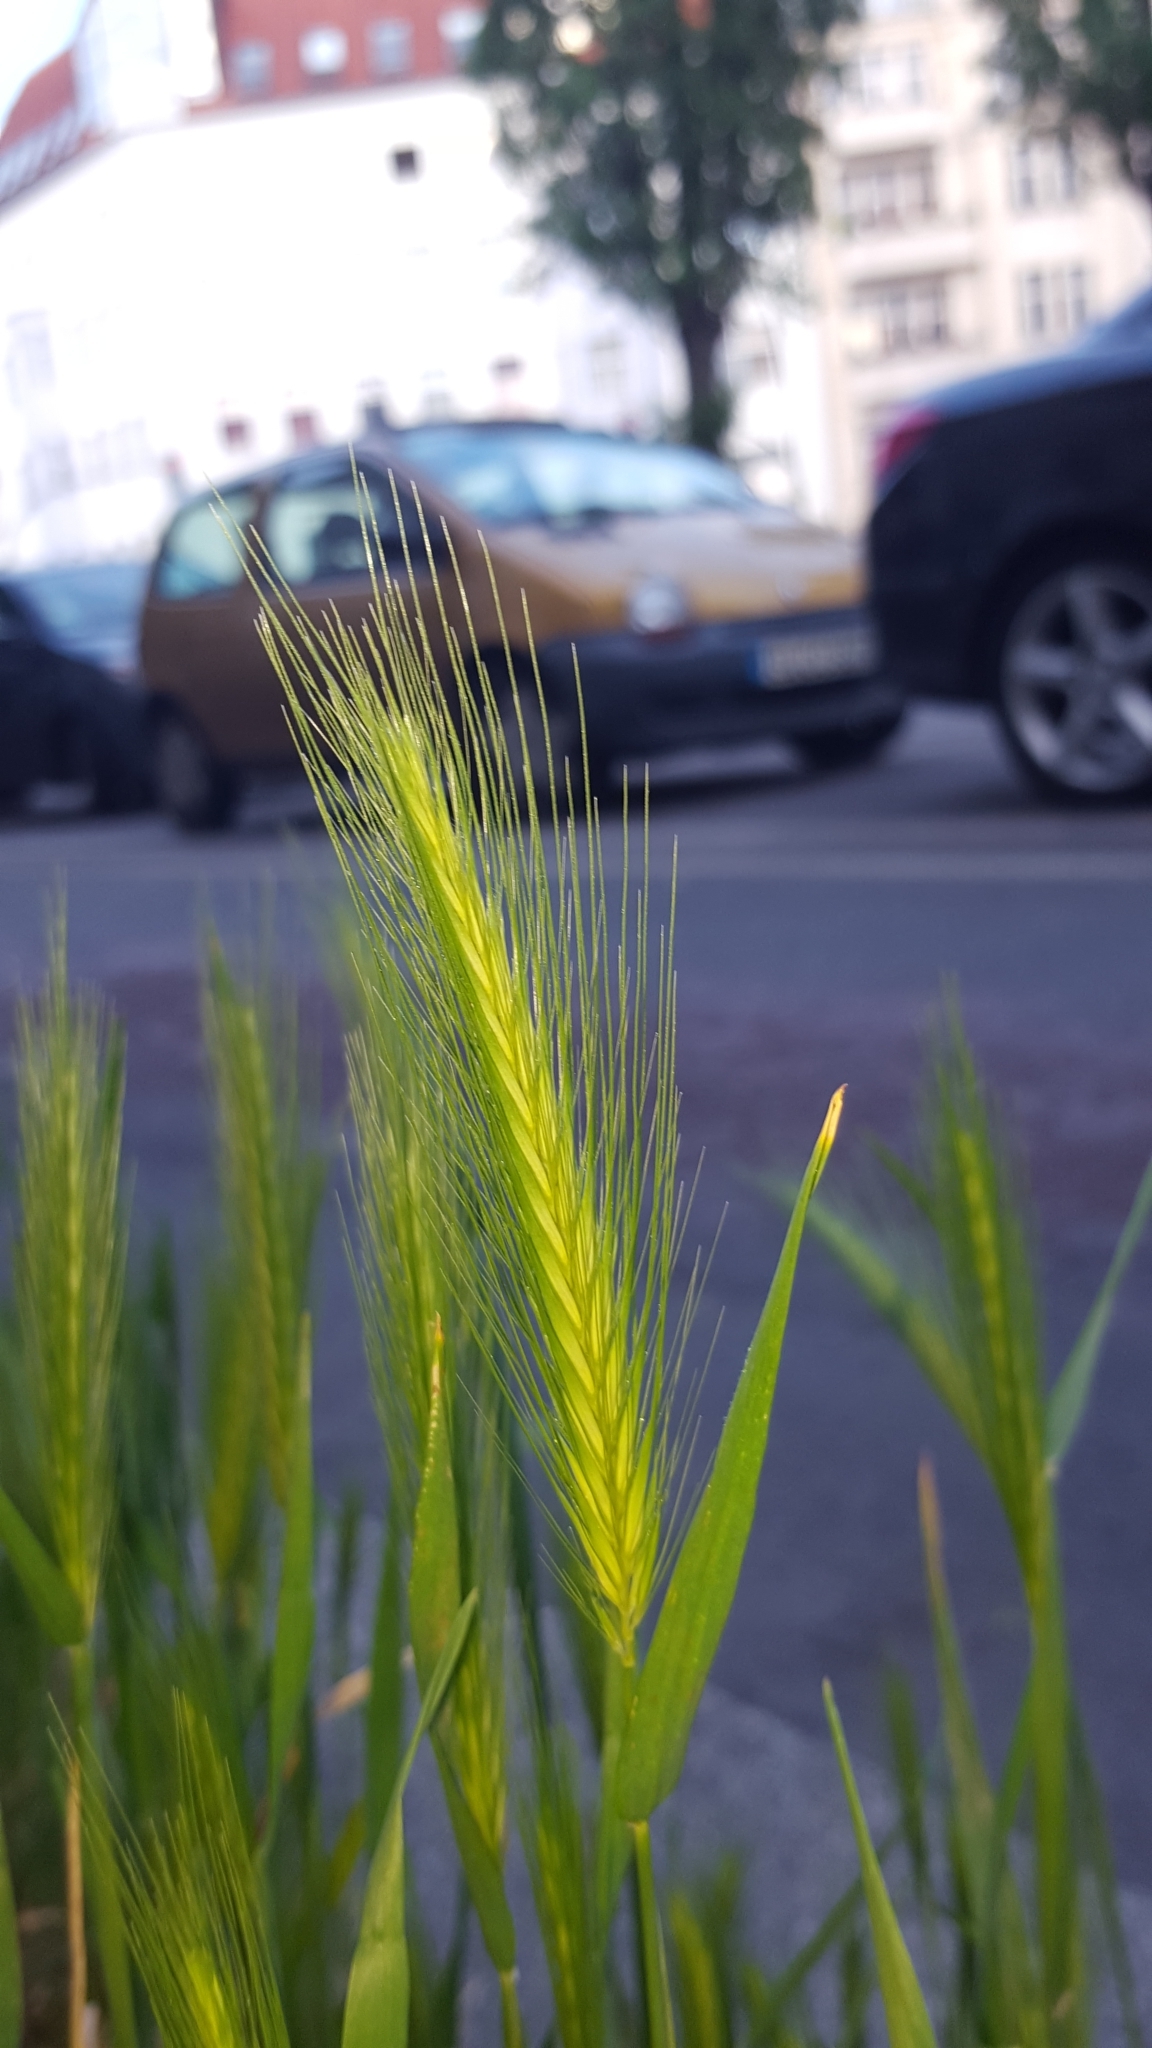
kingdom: Plantae
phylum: Tracheophyta
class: Liliopsida
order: Poales
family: Poaceae
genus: Hordeum
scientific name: Hordeum murinum
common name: Wall barley
